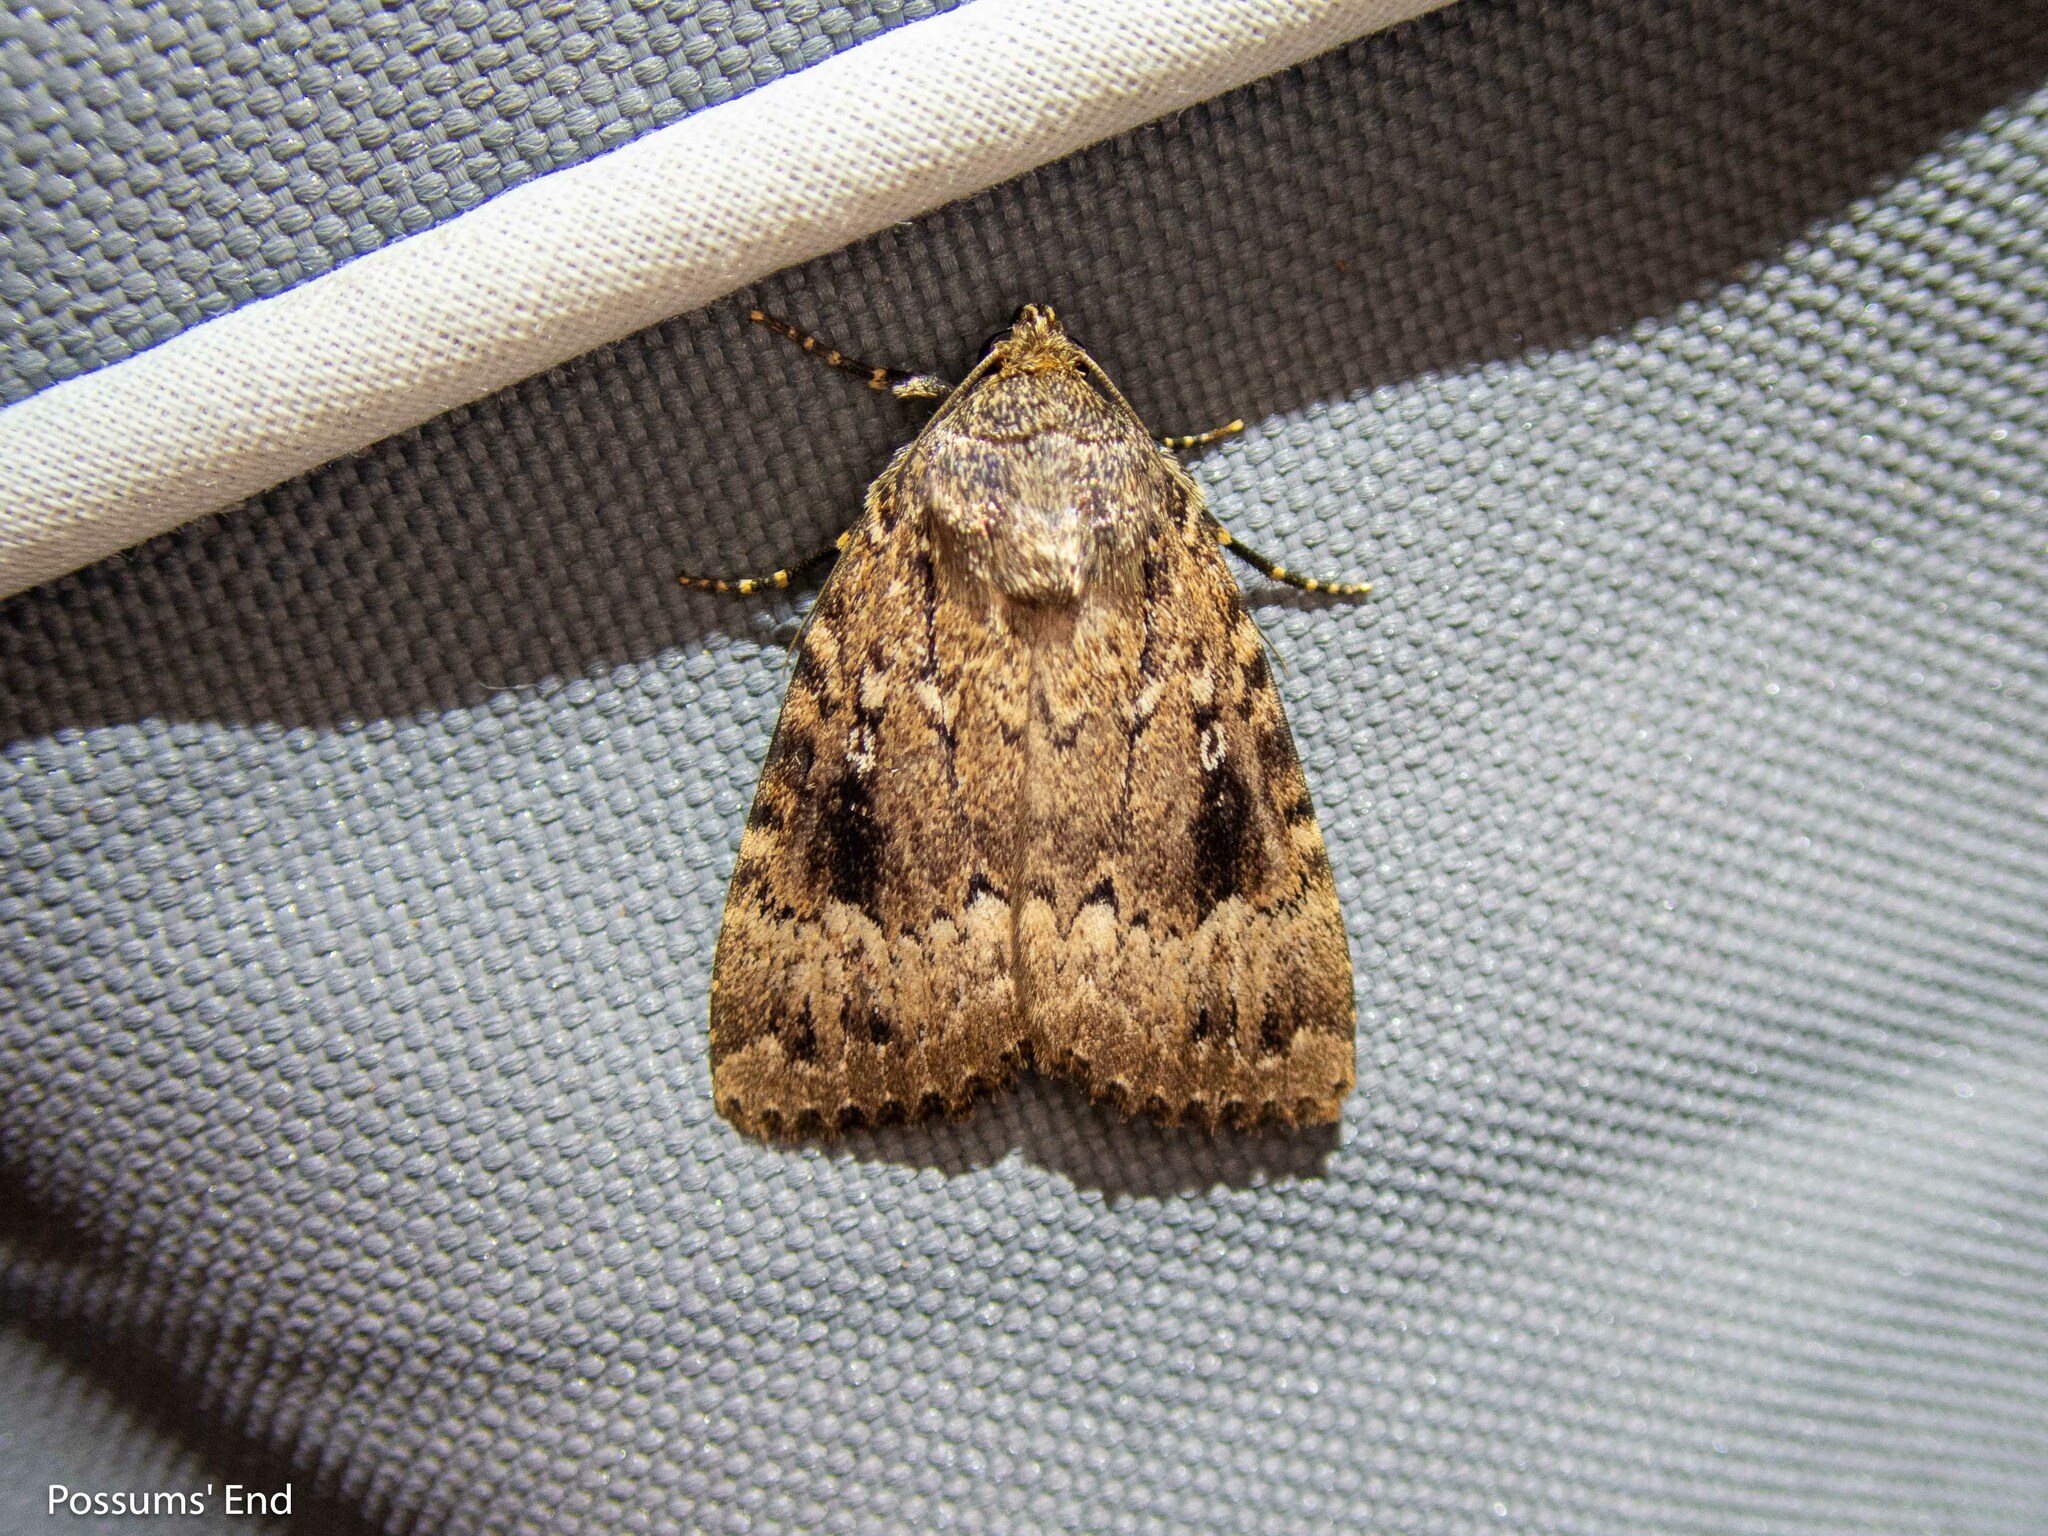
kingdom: Animalia
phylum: Arthropoda
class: Insecta
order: Lepidoptera
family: Noctuidae
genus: Amphipyra
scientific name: Amphipyra
